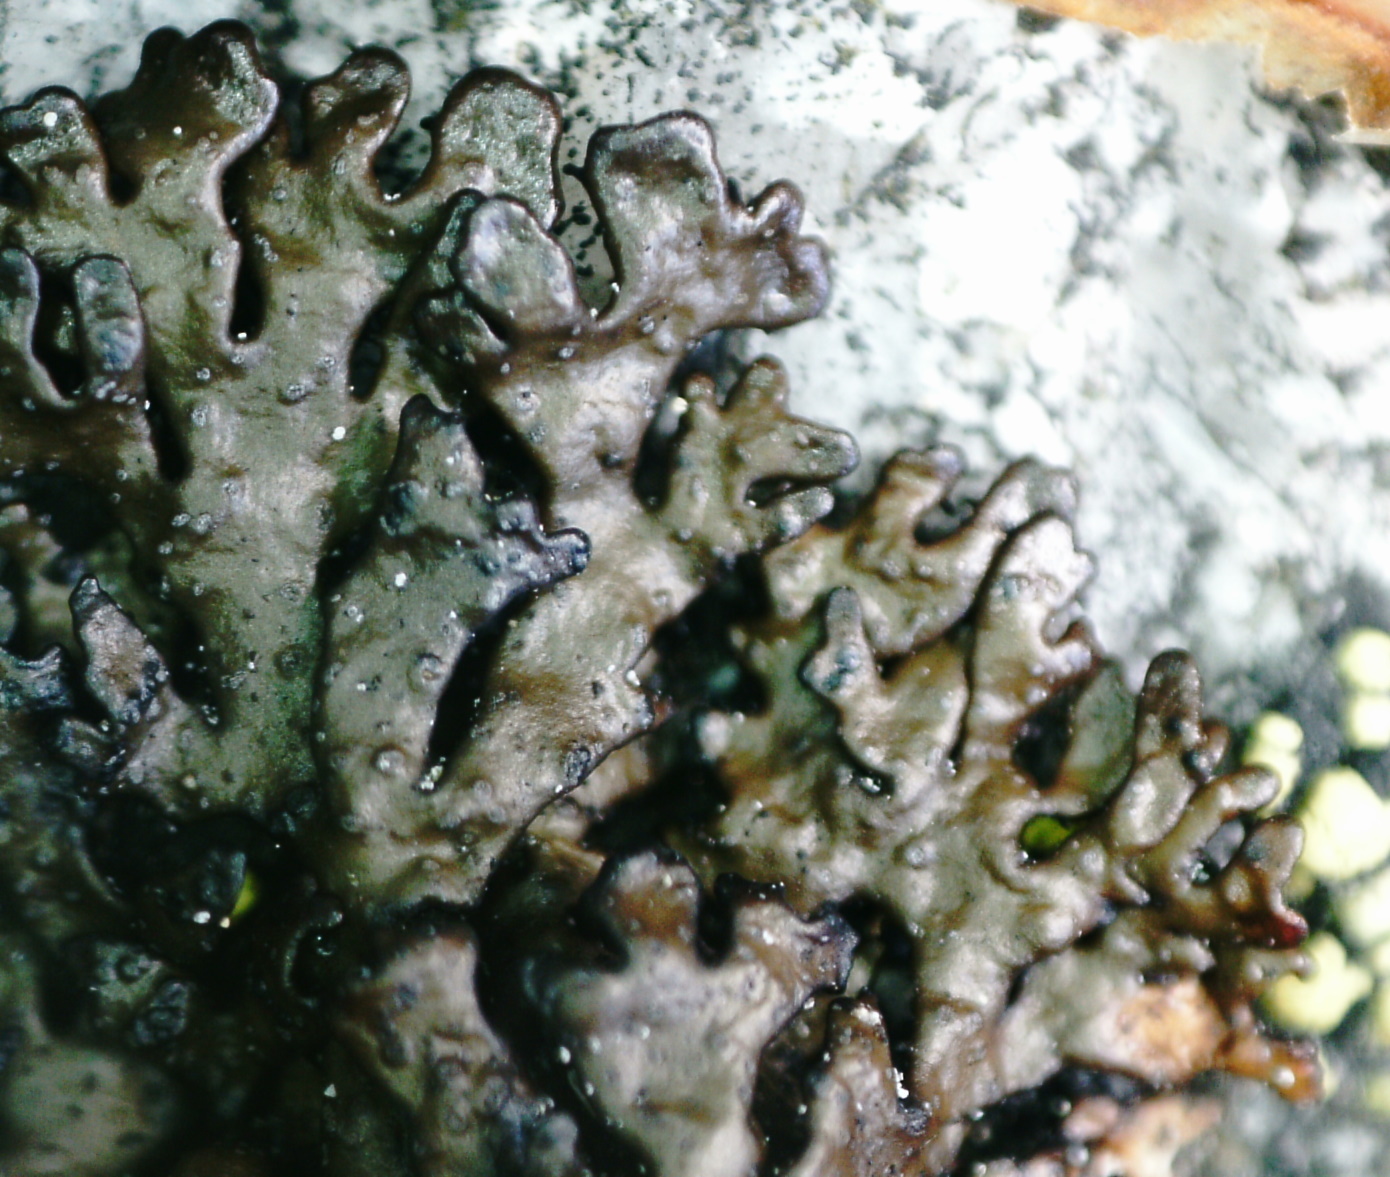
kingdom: Fungi
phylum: Ascomycota
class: Lecanoromycetes
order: Lecanorales
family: Parmeliaceae
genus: Melanelia
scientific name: Melanelia stygia
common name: Alpine camouflage lichen
